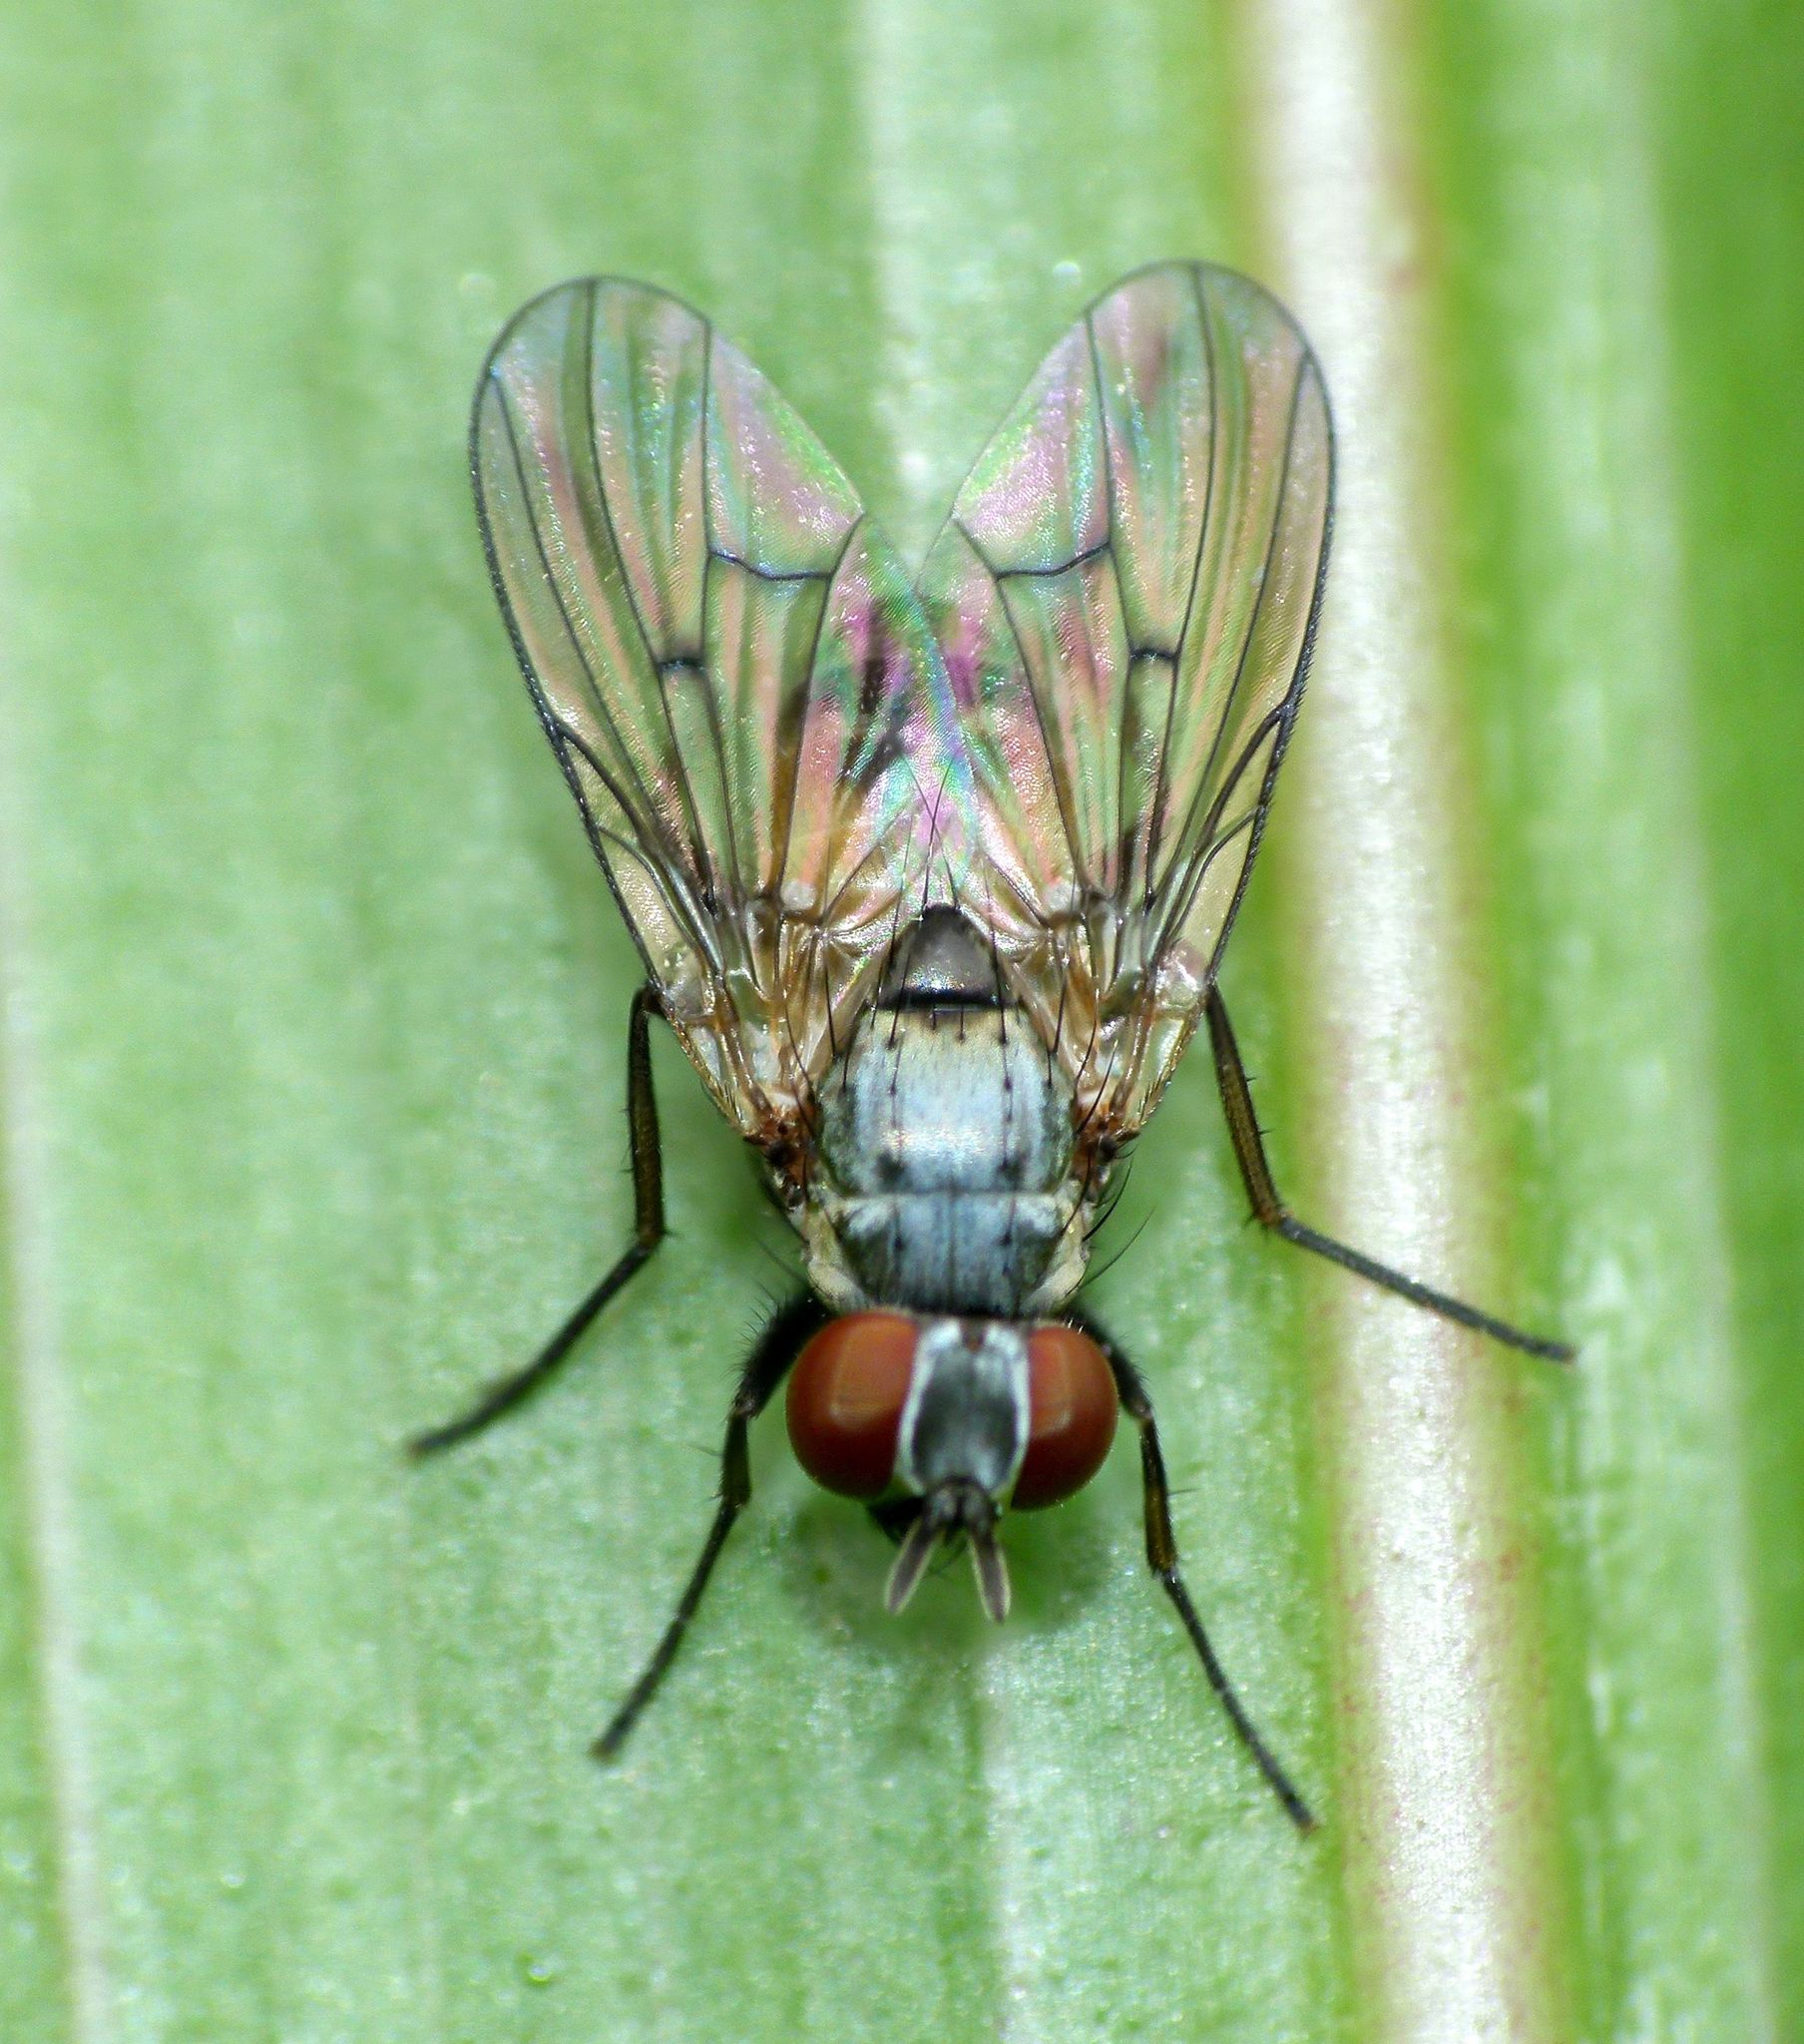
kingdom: Animalia
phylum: Arthropoda
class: Insecta
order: Diptera
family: Muscidae
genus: Spilogona
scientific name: Spilogona flaviventris
